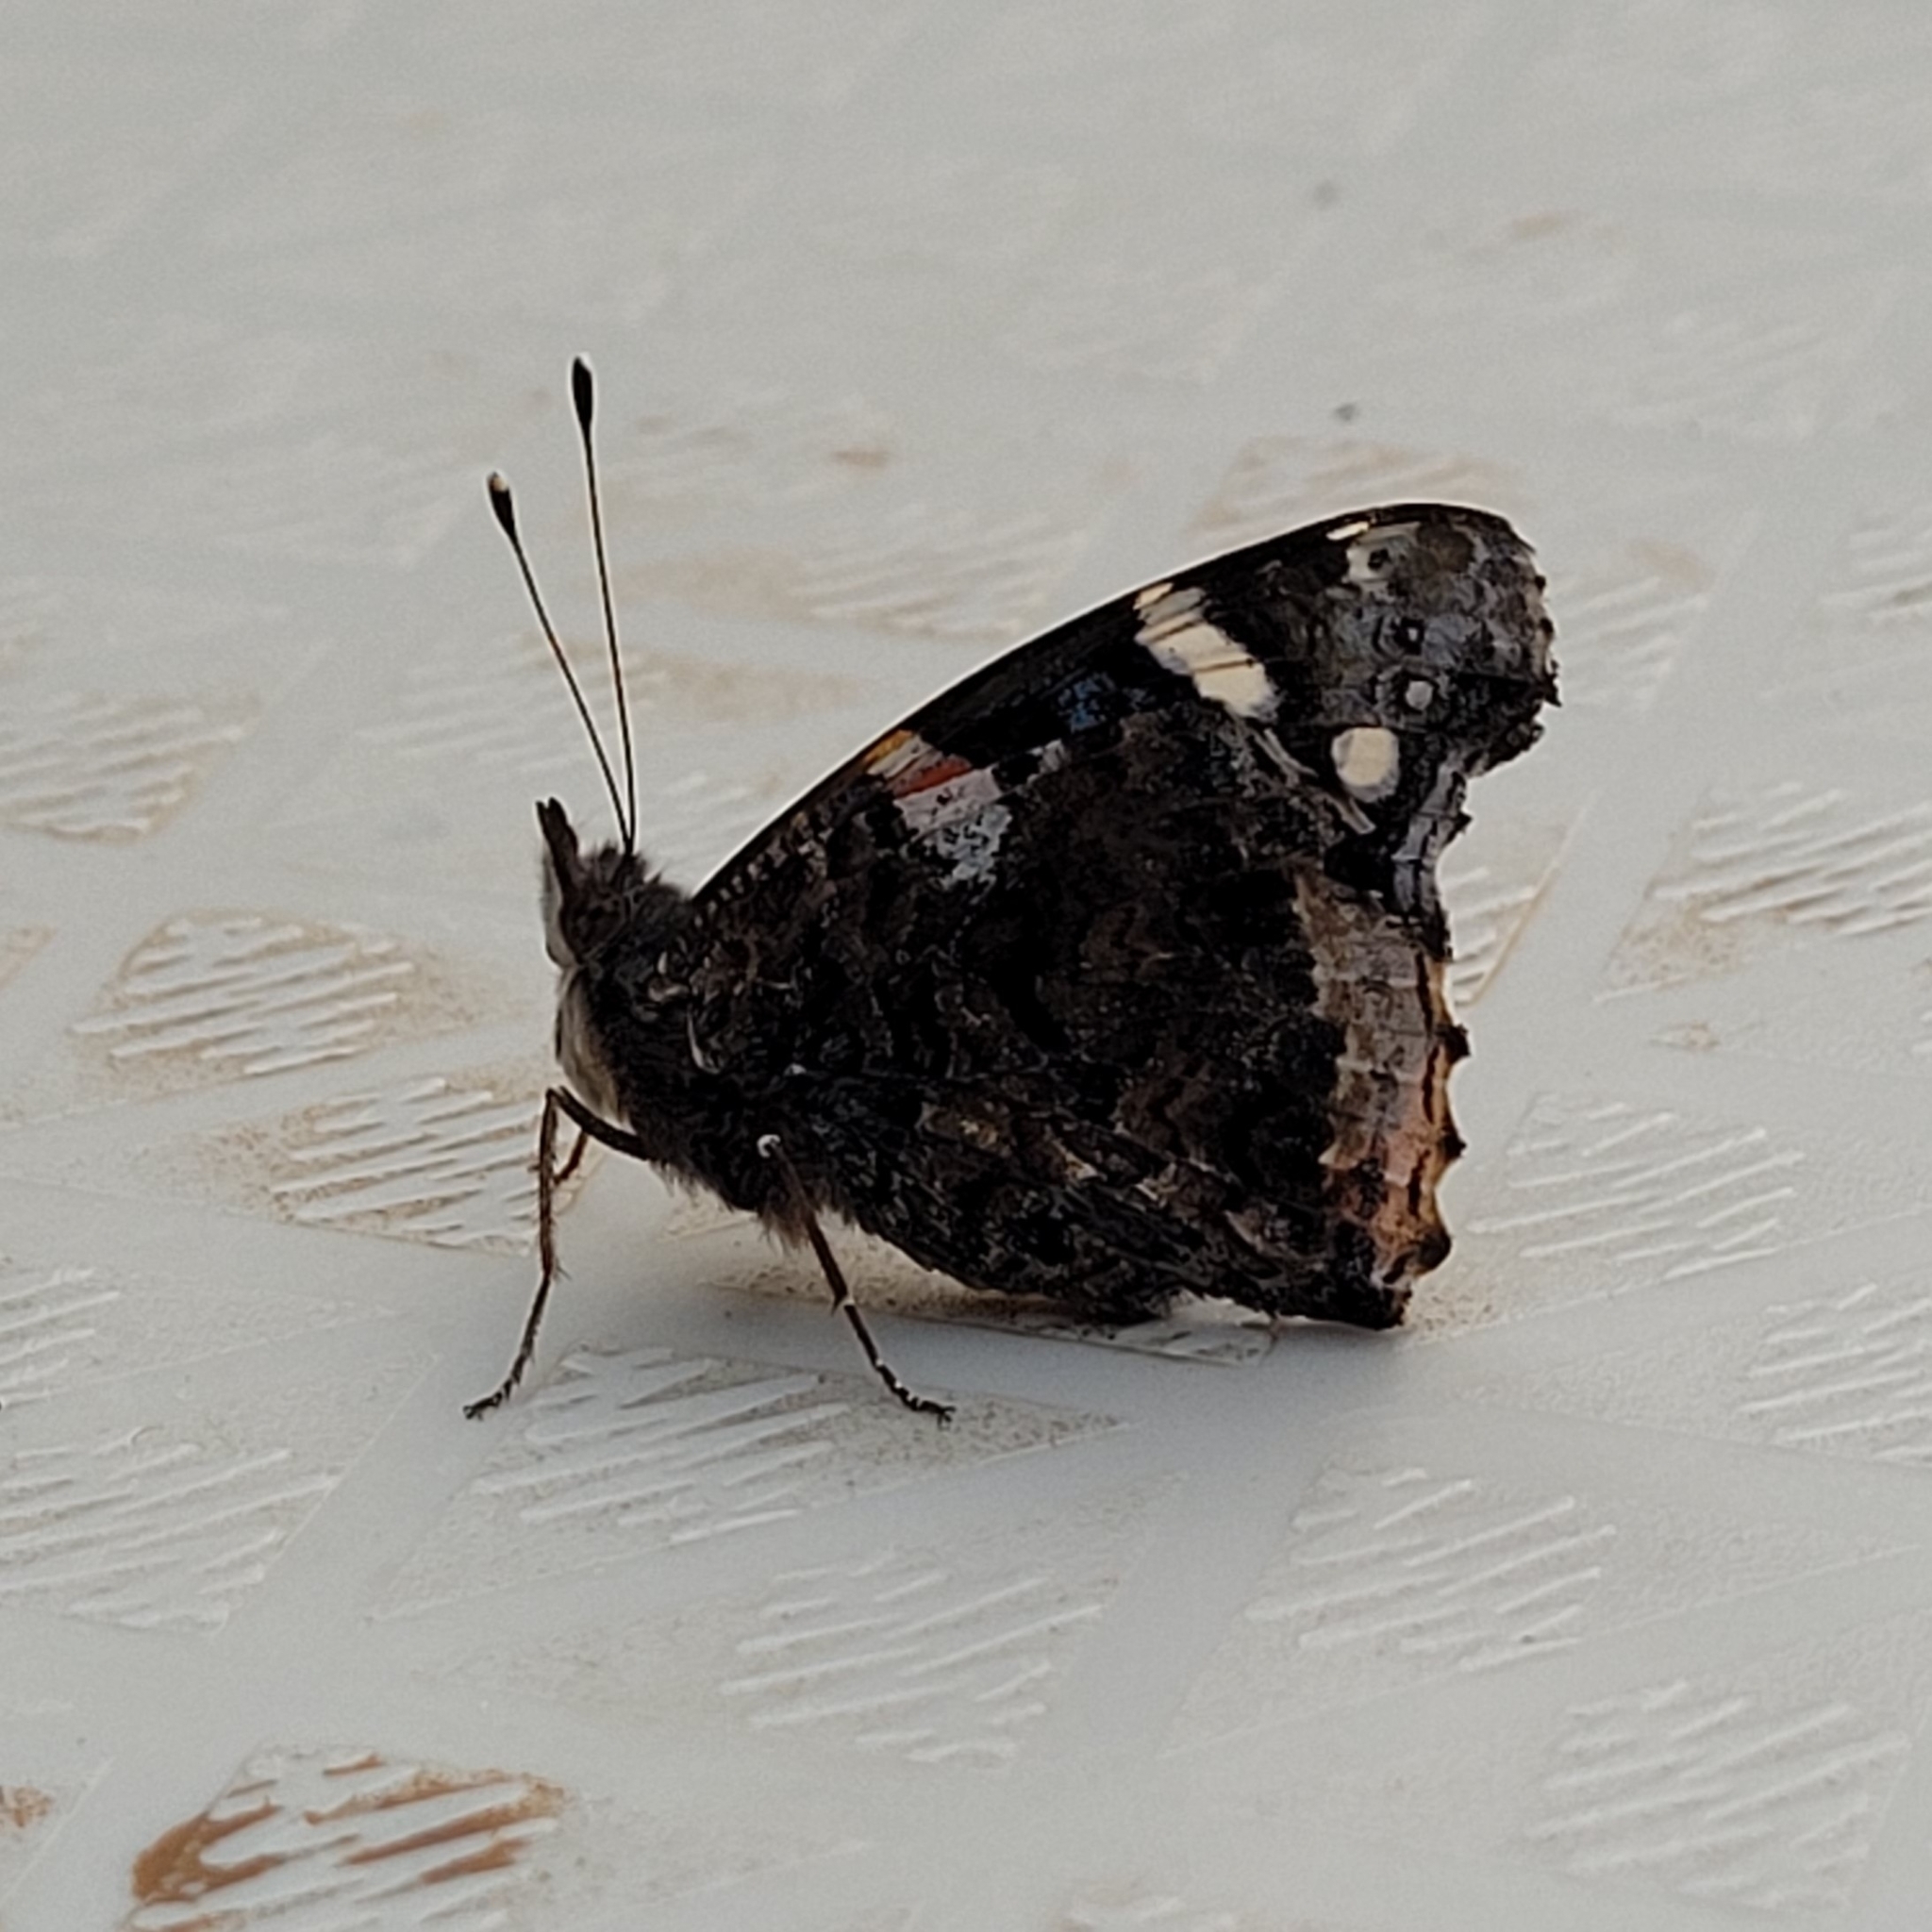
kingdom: Animalia
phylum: Arthropoda
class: Insecta
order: Lepidoptera
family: Nymphalidae
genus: Vanessa
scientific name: Vanessa atalanta
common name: Red admiral
